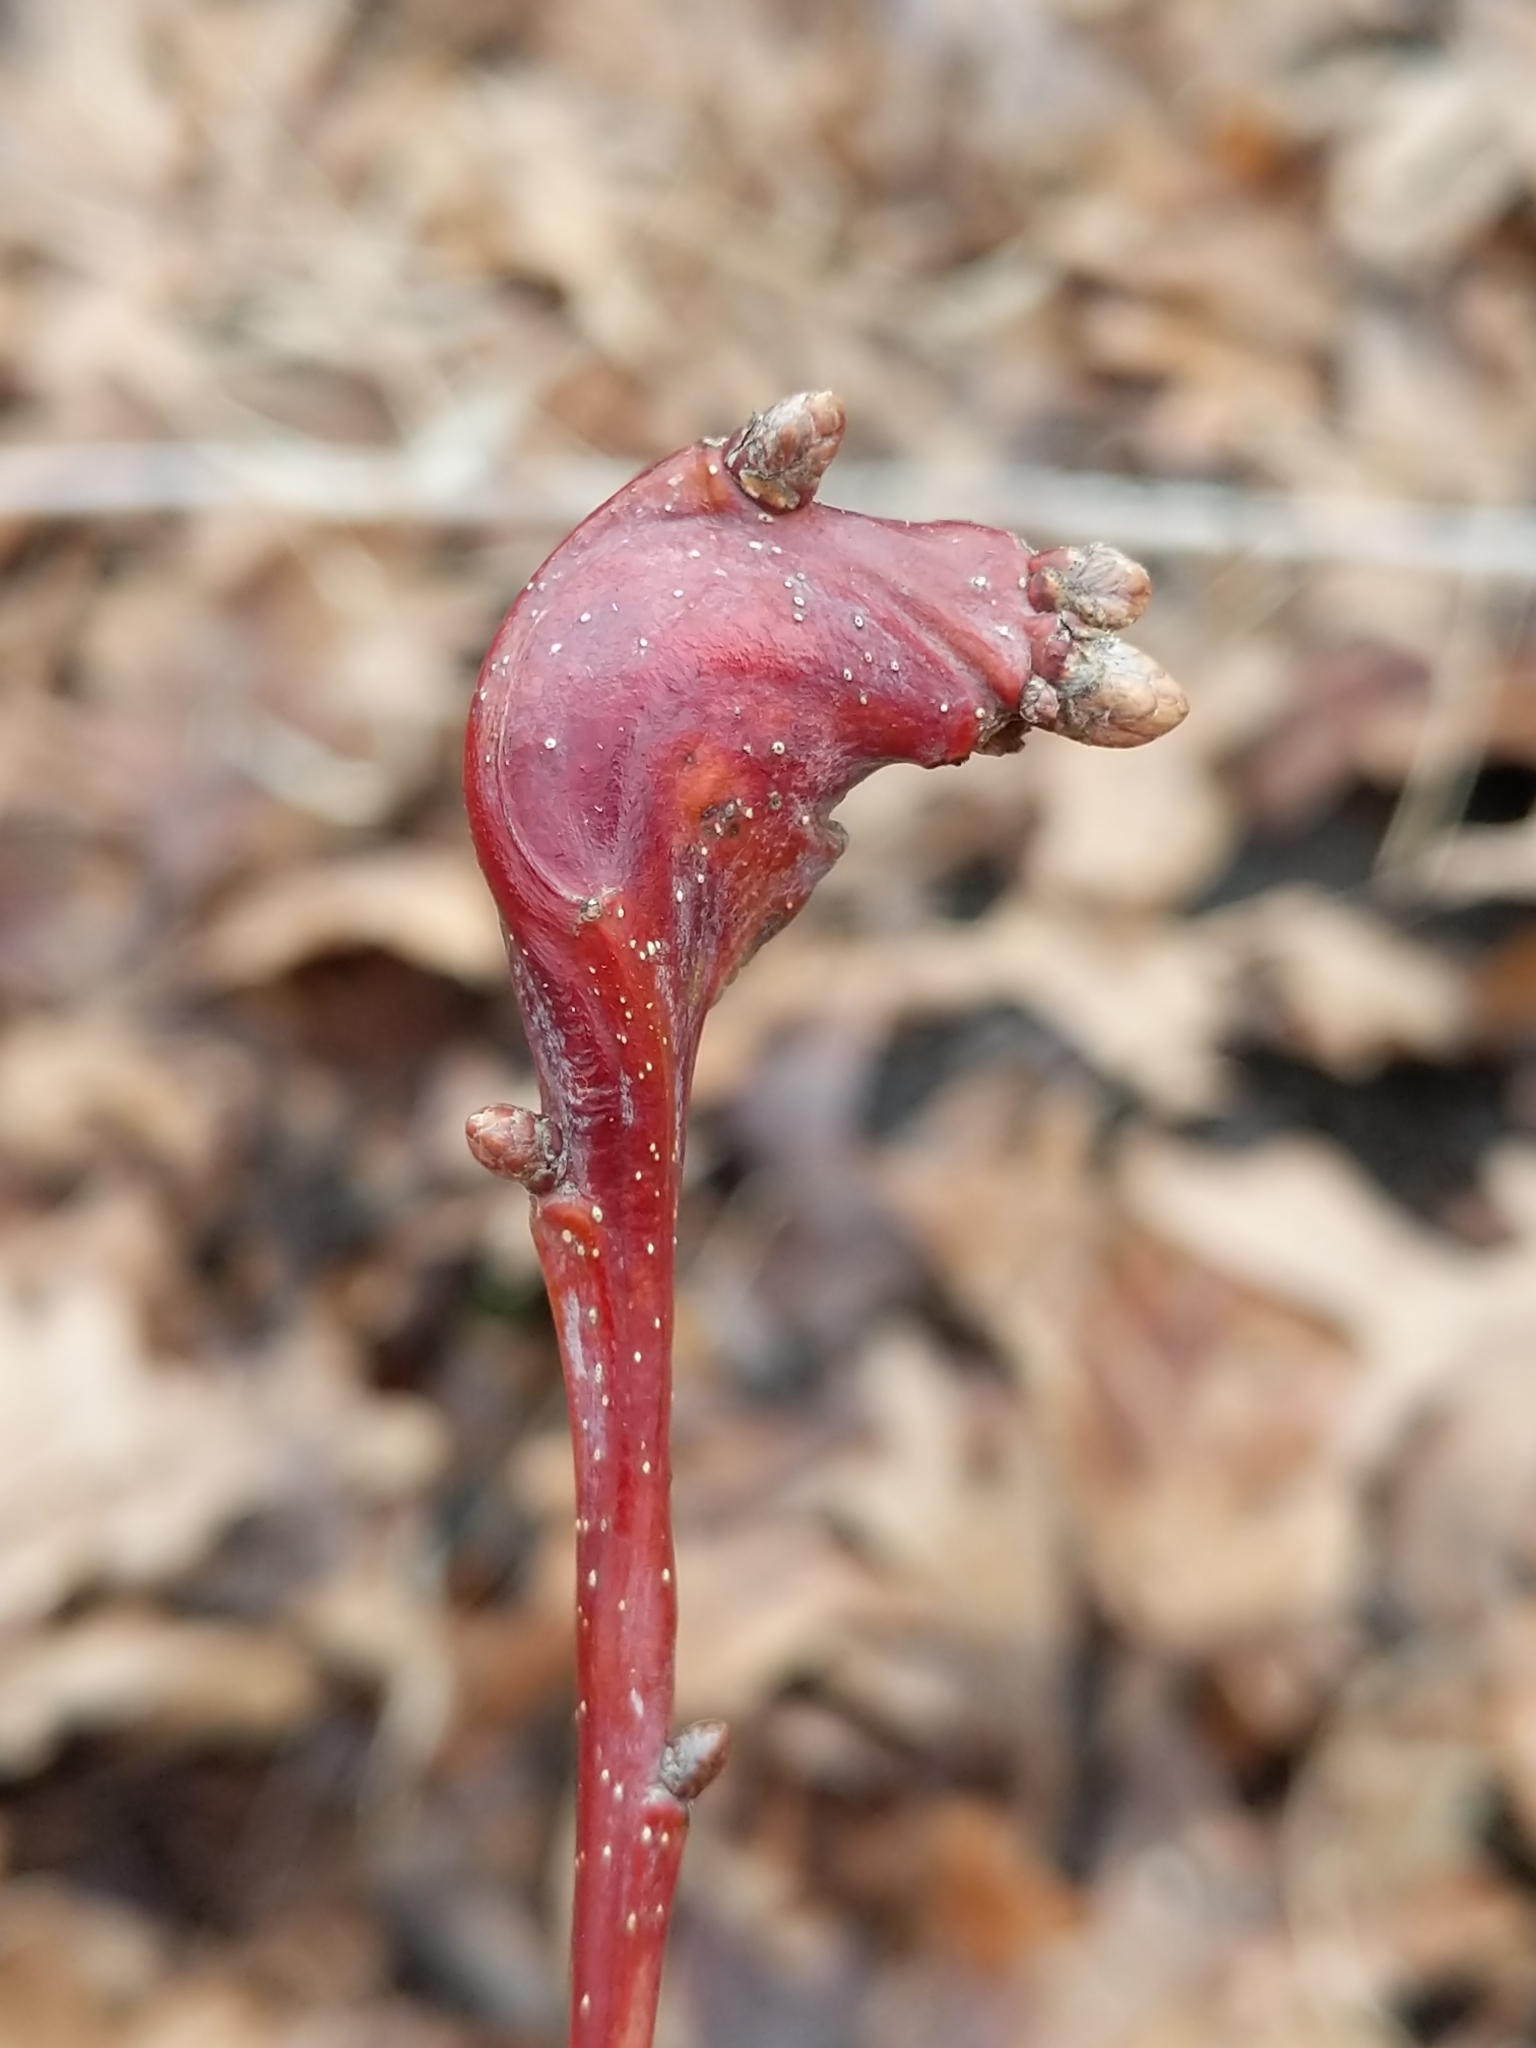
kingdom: Animalia
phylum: Arthropoda
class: Insecta
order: Hymenoptera
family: Cynipidae
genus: Callirhytis
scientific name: Callirhytis clavula
